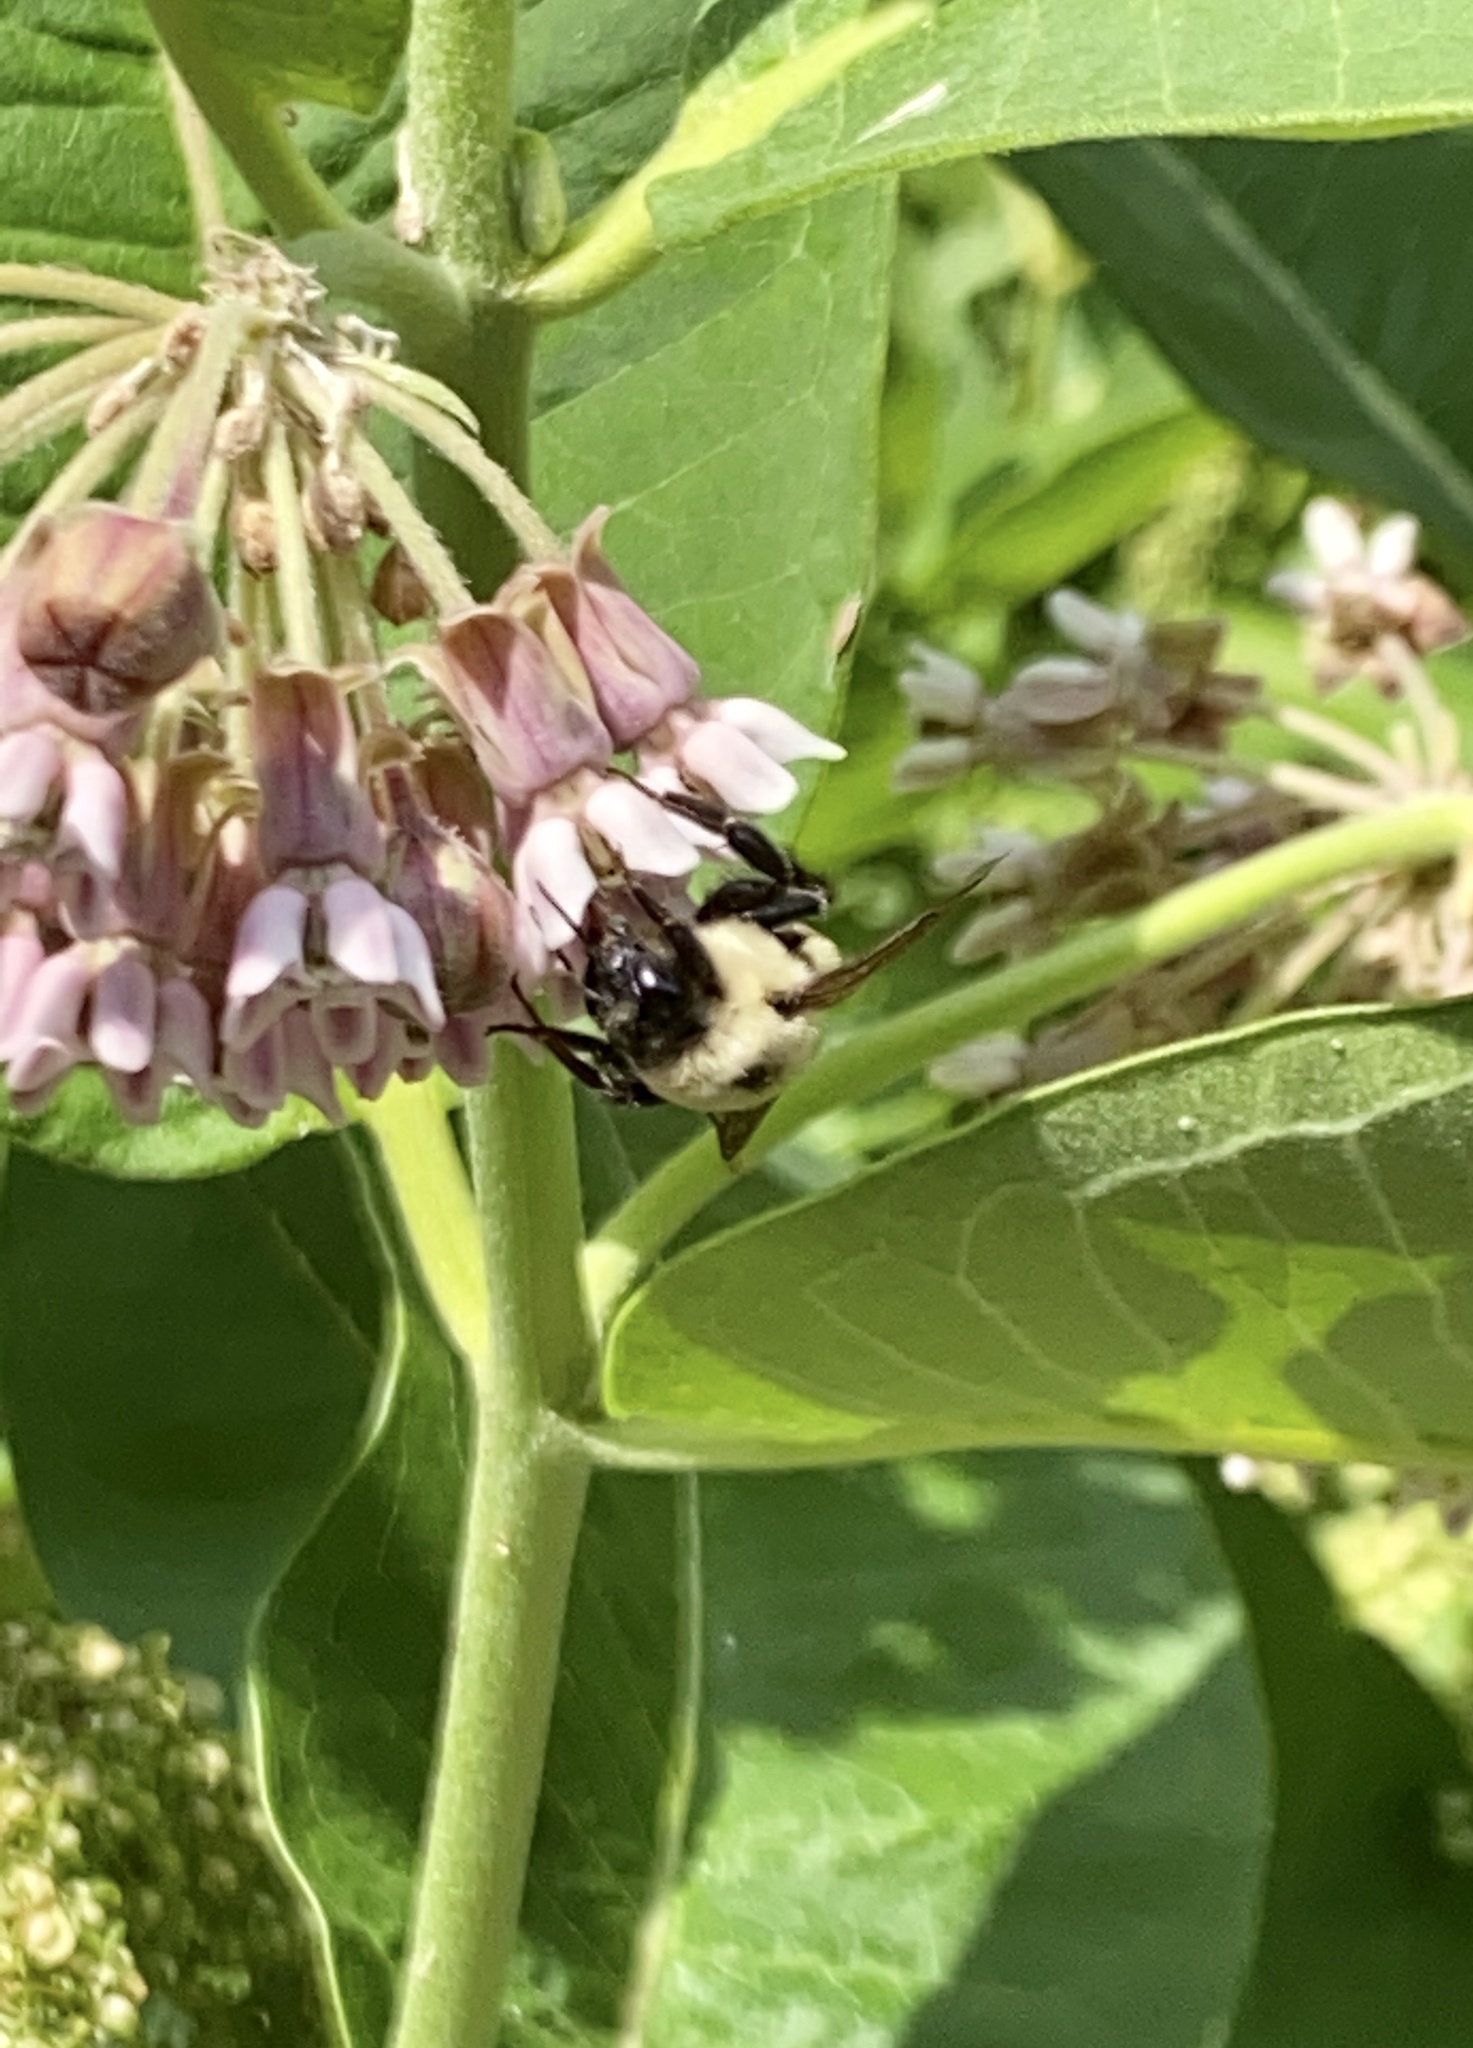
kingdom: Animalia
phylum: Arthropoda
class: Insecta
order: Hymenoptera
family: Apidae
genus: Bombus
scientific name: Bombus griseocollis
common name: Brown-belted bumble bee
